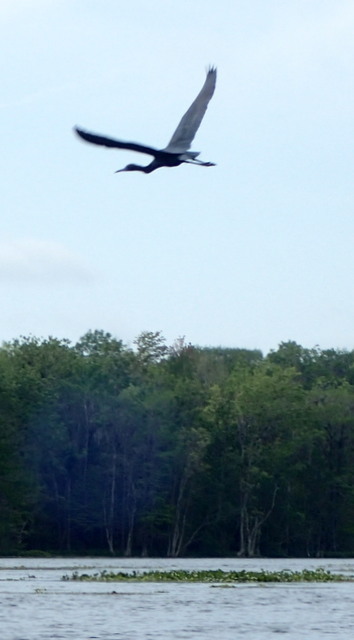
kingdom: Animalia
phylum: Chordata
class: Aves
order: Pelecaniformes
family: Ardeidae
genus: Egretta
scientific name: Egretta caerulea
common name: Little blue heron
